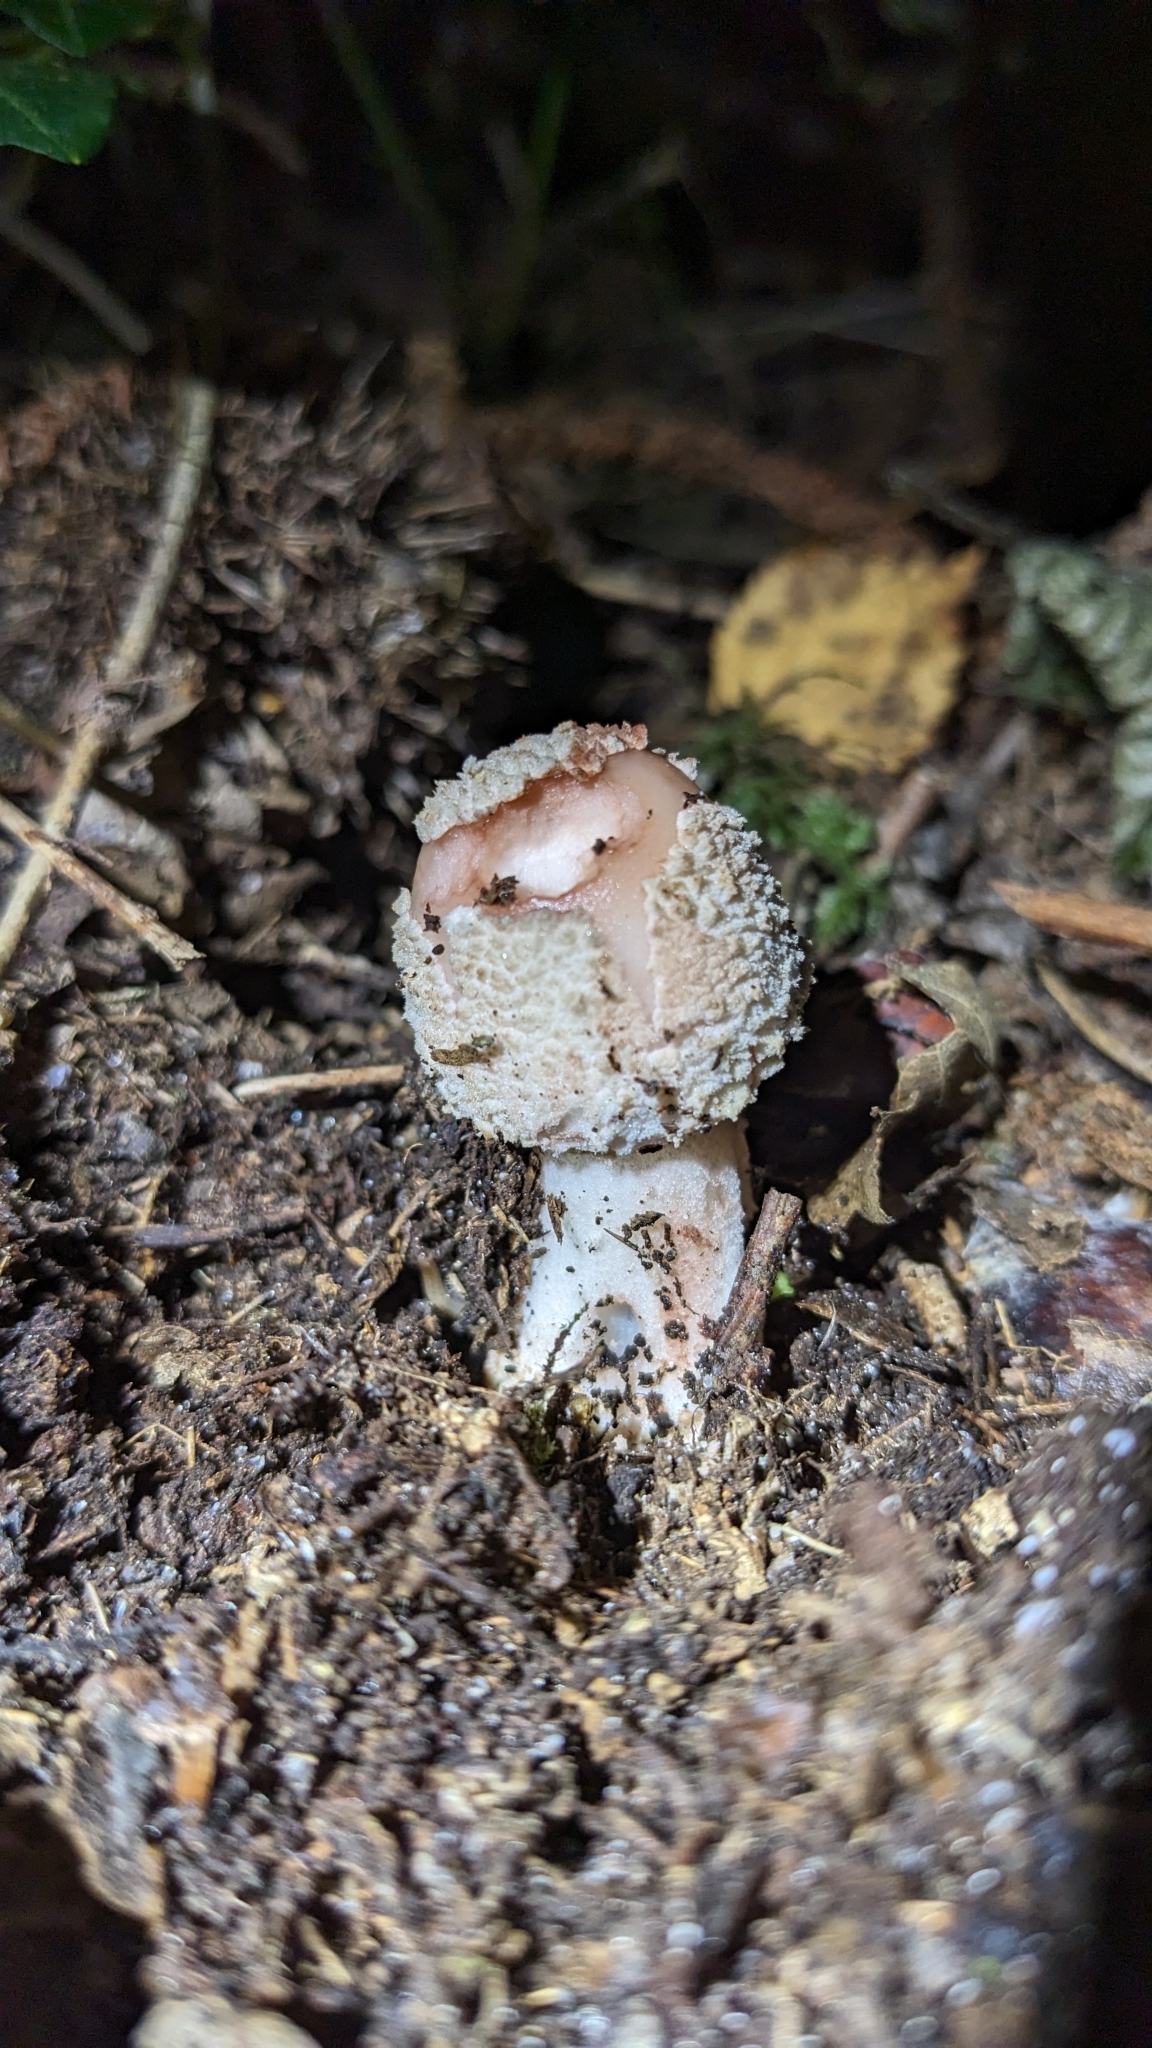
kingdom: Fungi
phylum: Basidiomycota
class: Agaricomycetes
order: Agaricales
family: Amanitaceae
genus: Amanita
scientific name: Amanita rubescens
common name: Blusher
